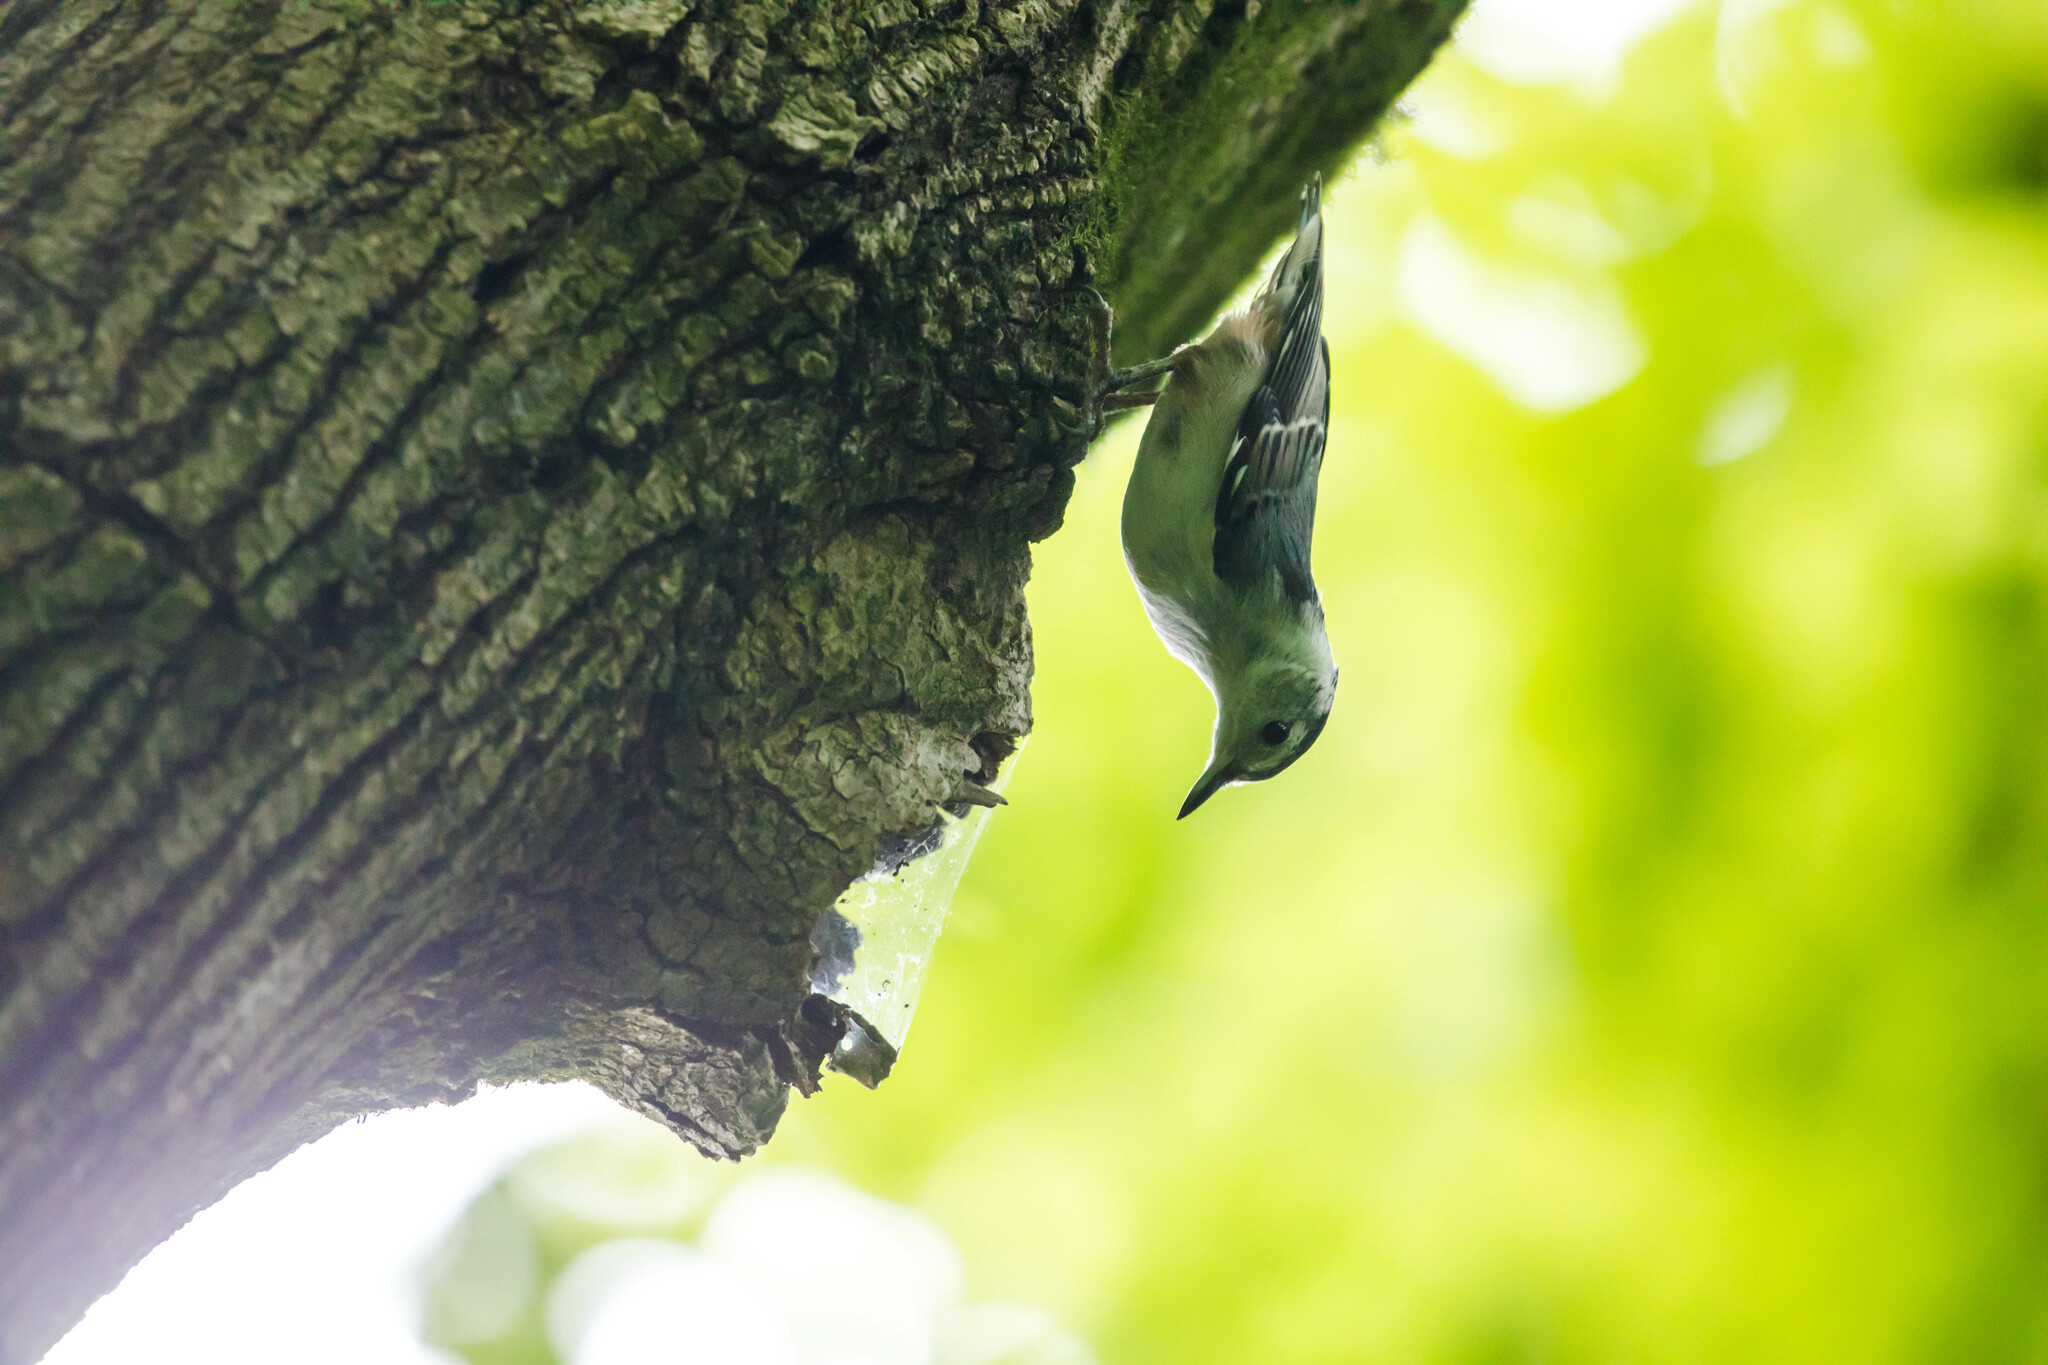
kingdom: Animalia
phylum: Chordata
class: Aves
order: Passeriformes
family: Sittidae
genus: Sitta
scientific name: Sitta carolinensis
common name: White-breasted nuthatch
